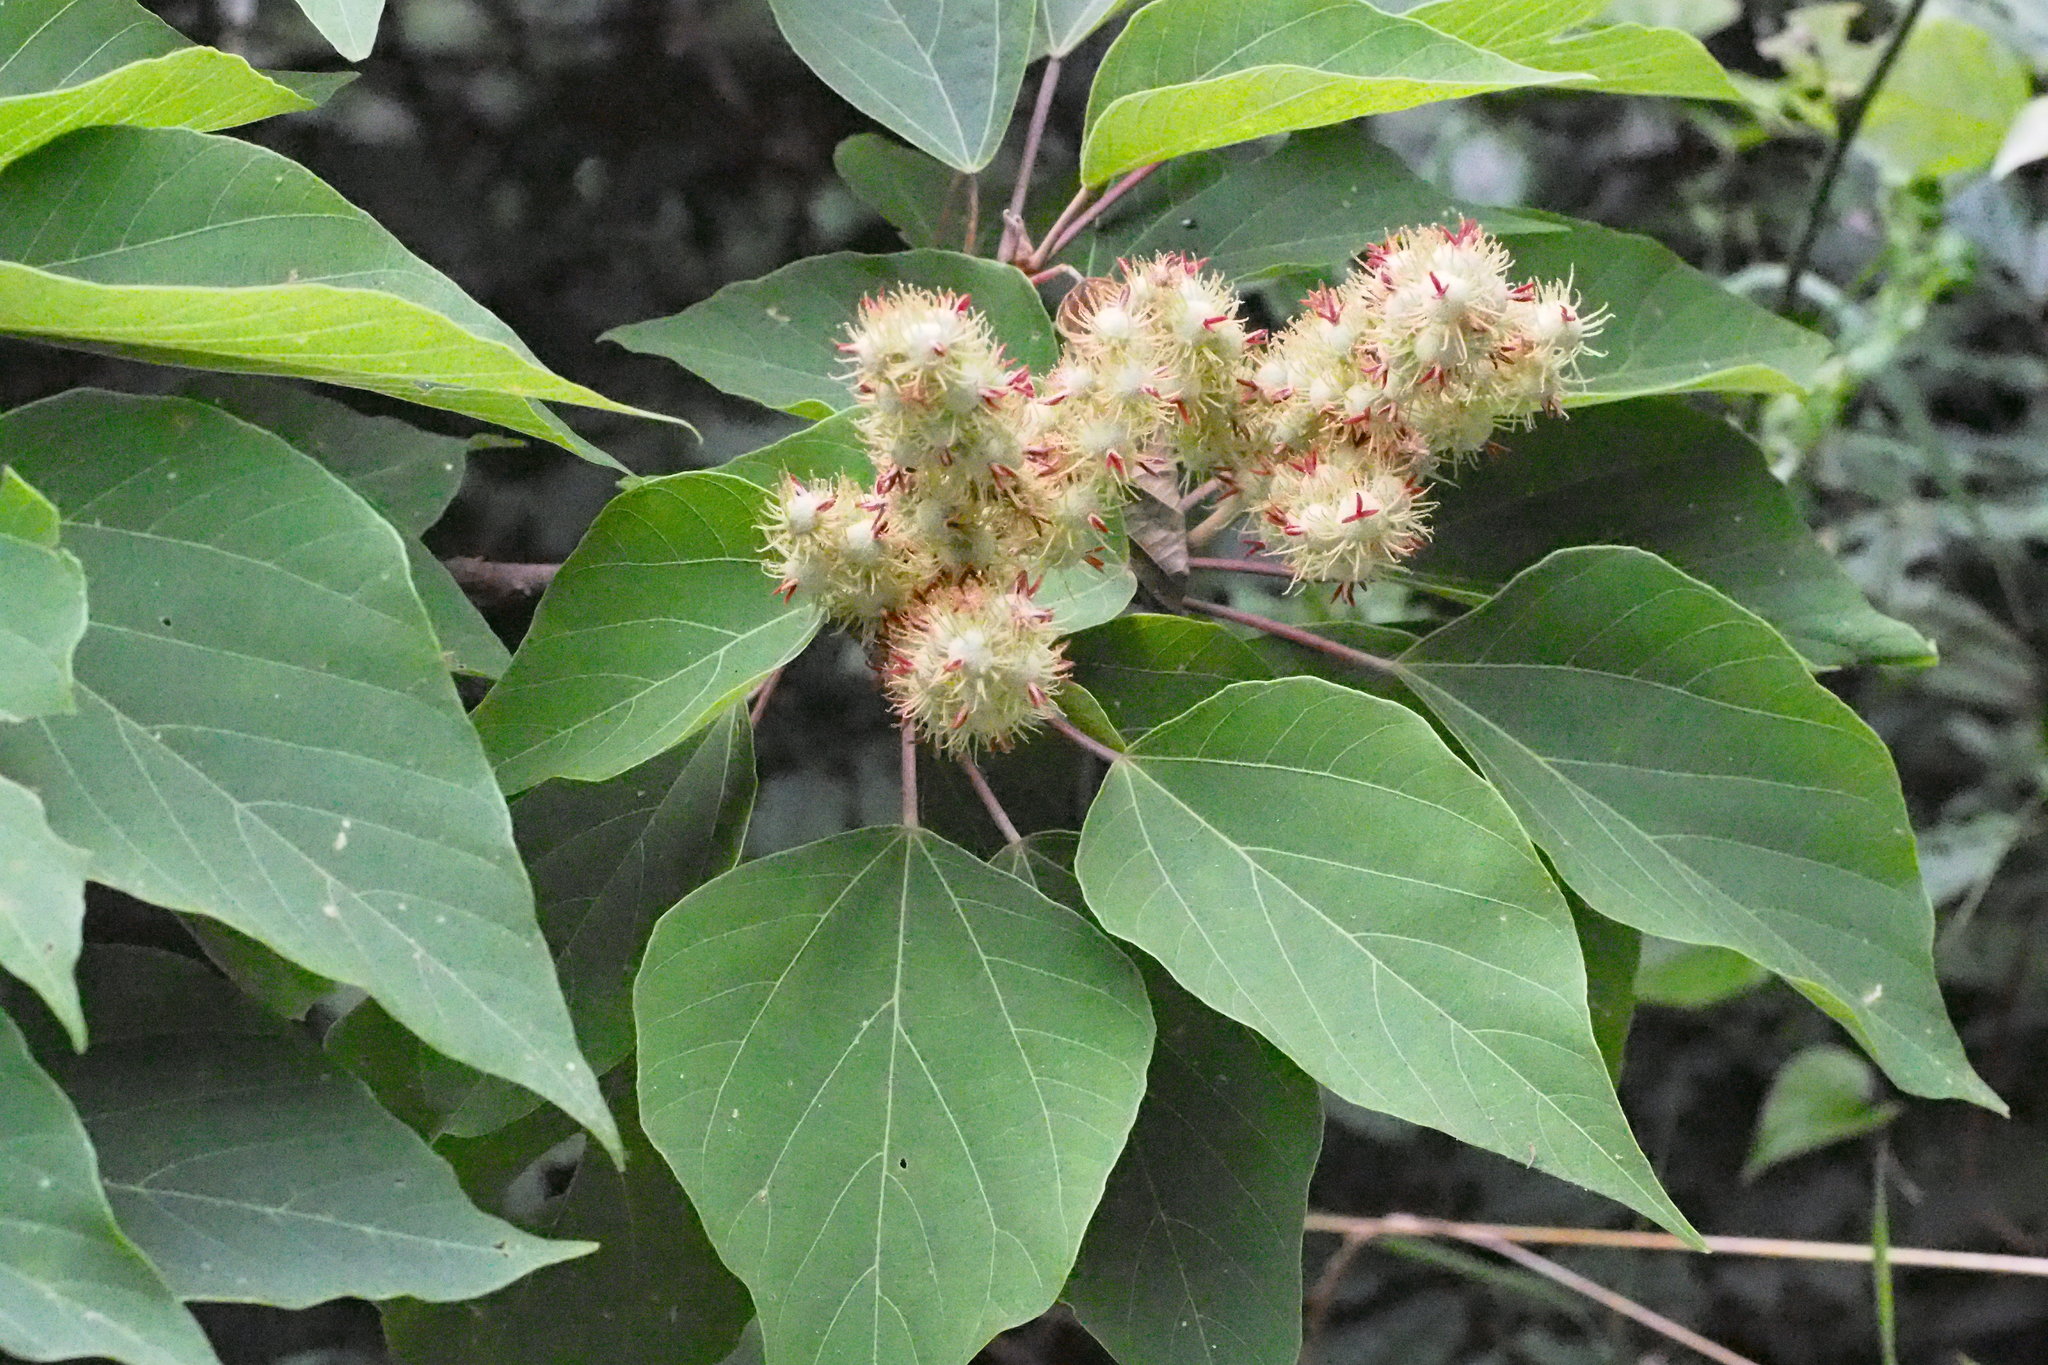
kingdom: Plantae
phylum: Tracheophyta
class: Magnoliopsida
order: Malpighiales
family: Euphorbiaceae
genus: Mallotus
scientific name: Mallotus japonicus
